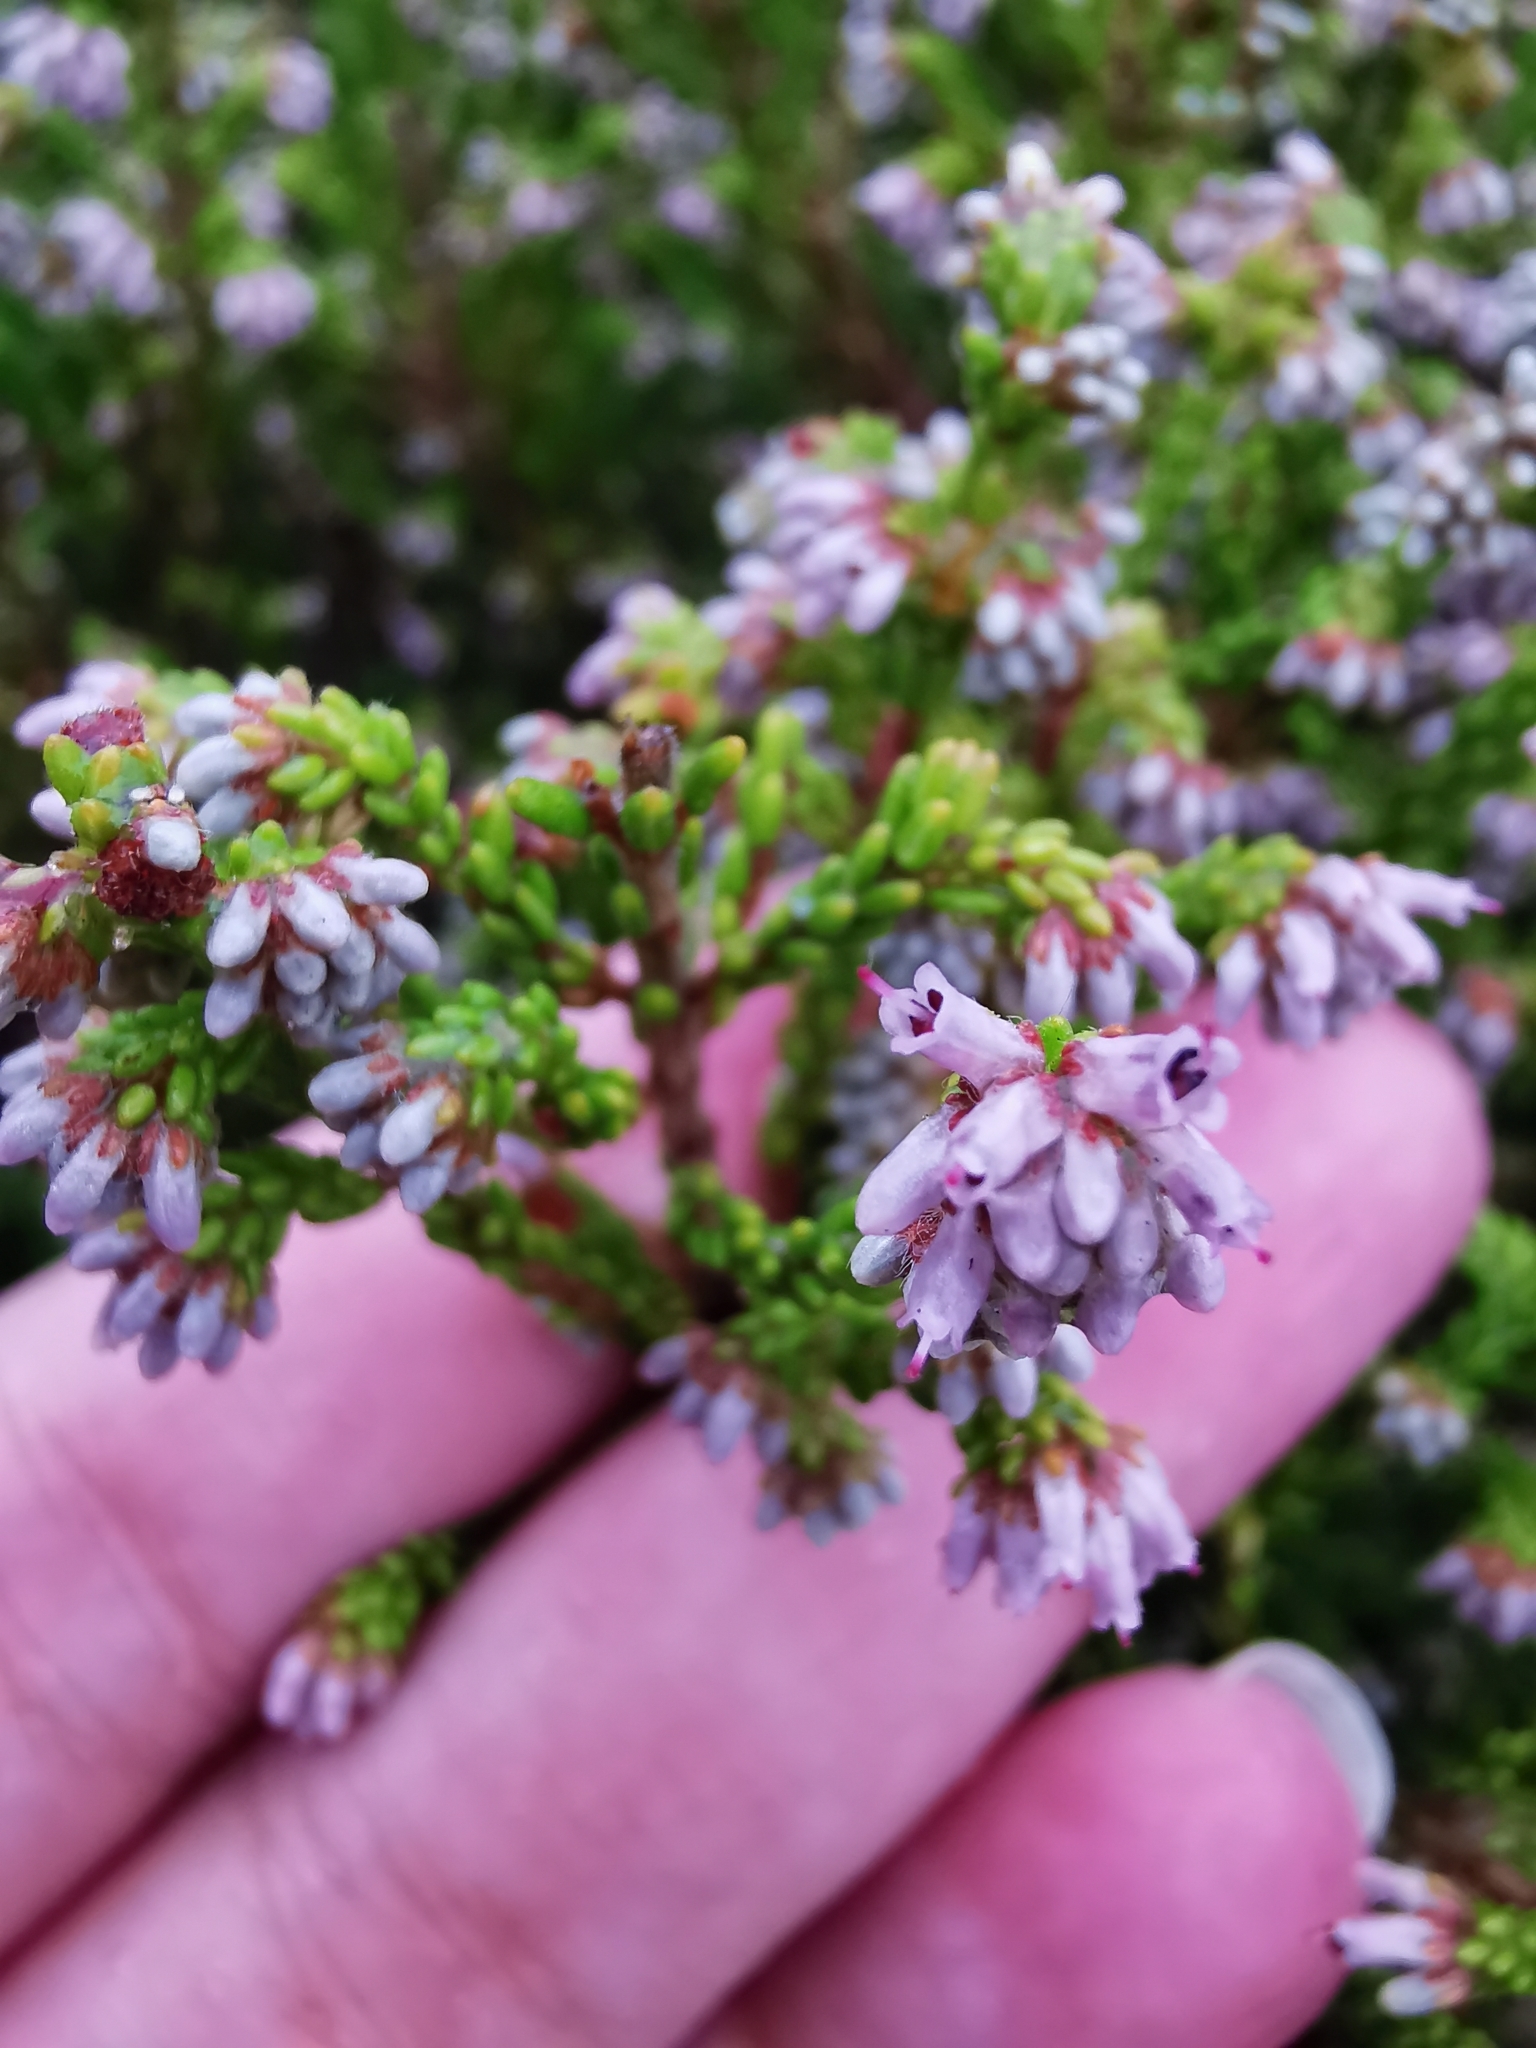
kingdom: Plantae
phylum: Tracheophyta
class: Magnoliopsida
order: Ericales
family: Ericaceae
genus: Erica
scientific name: Erica equisetifolia
